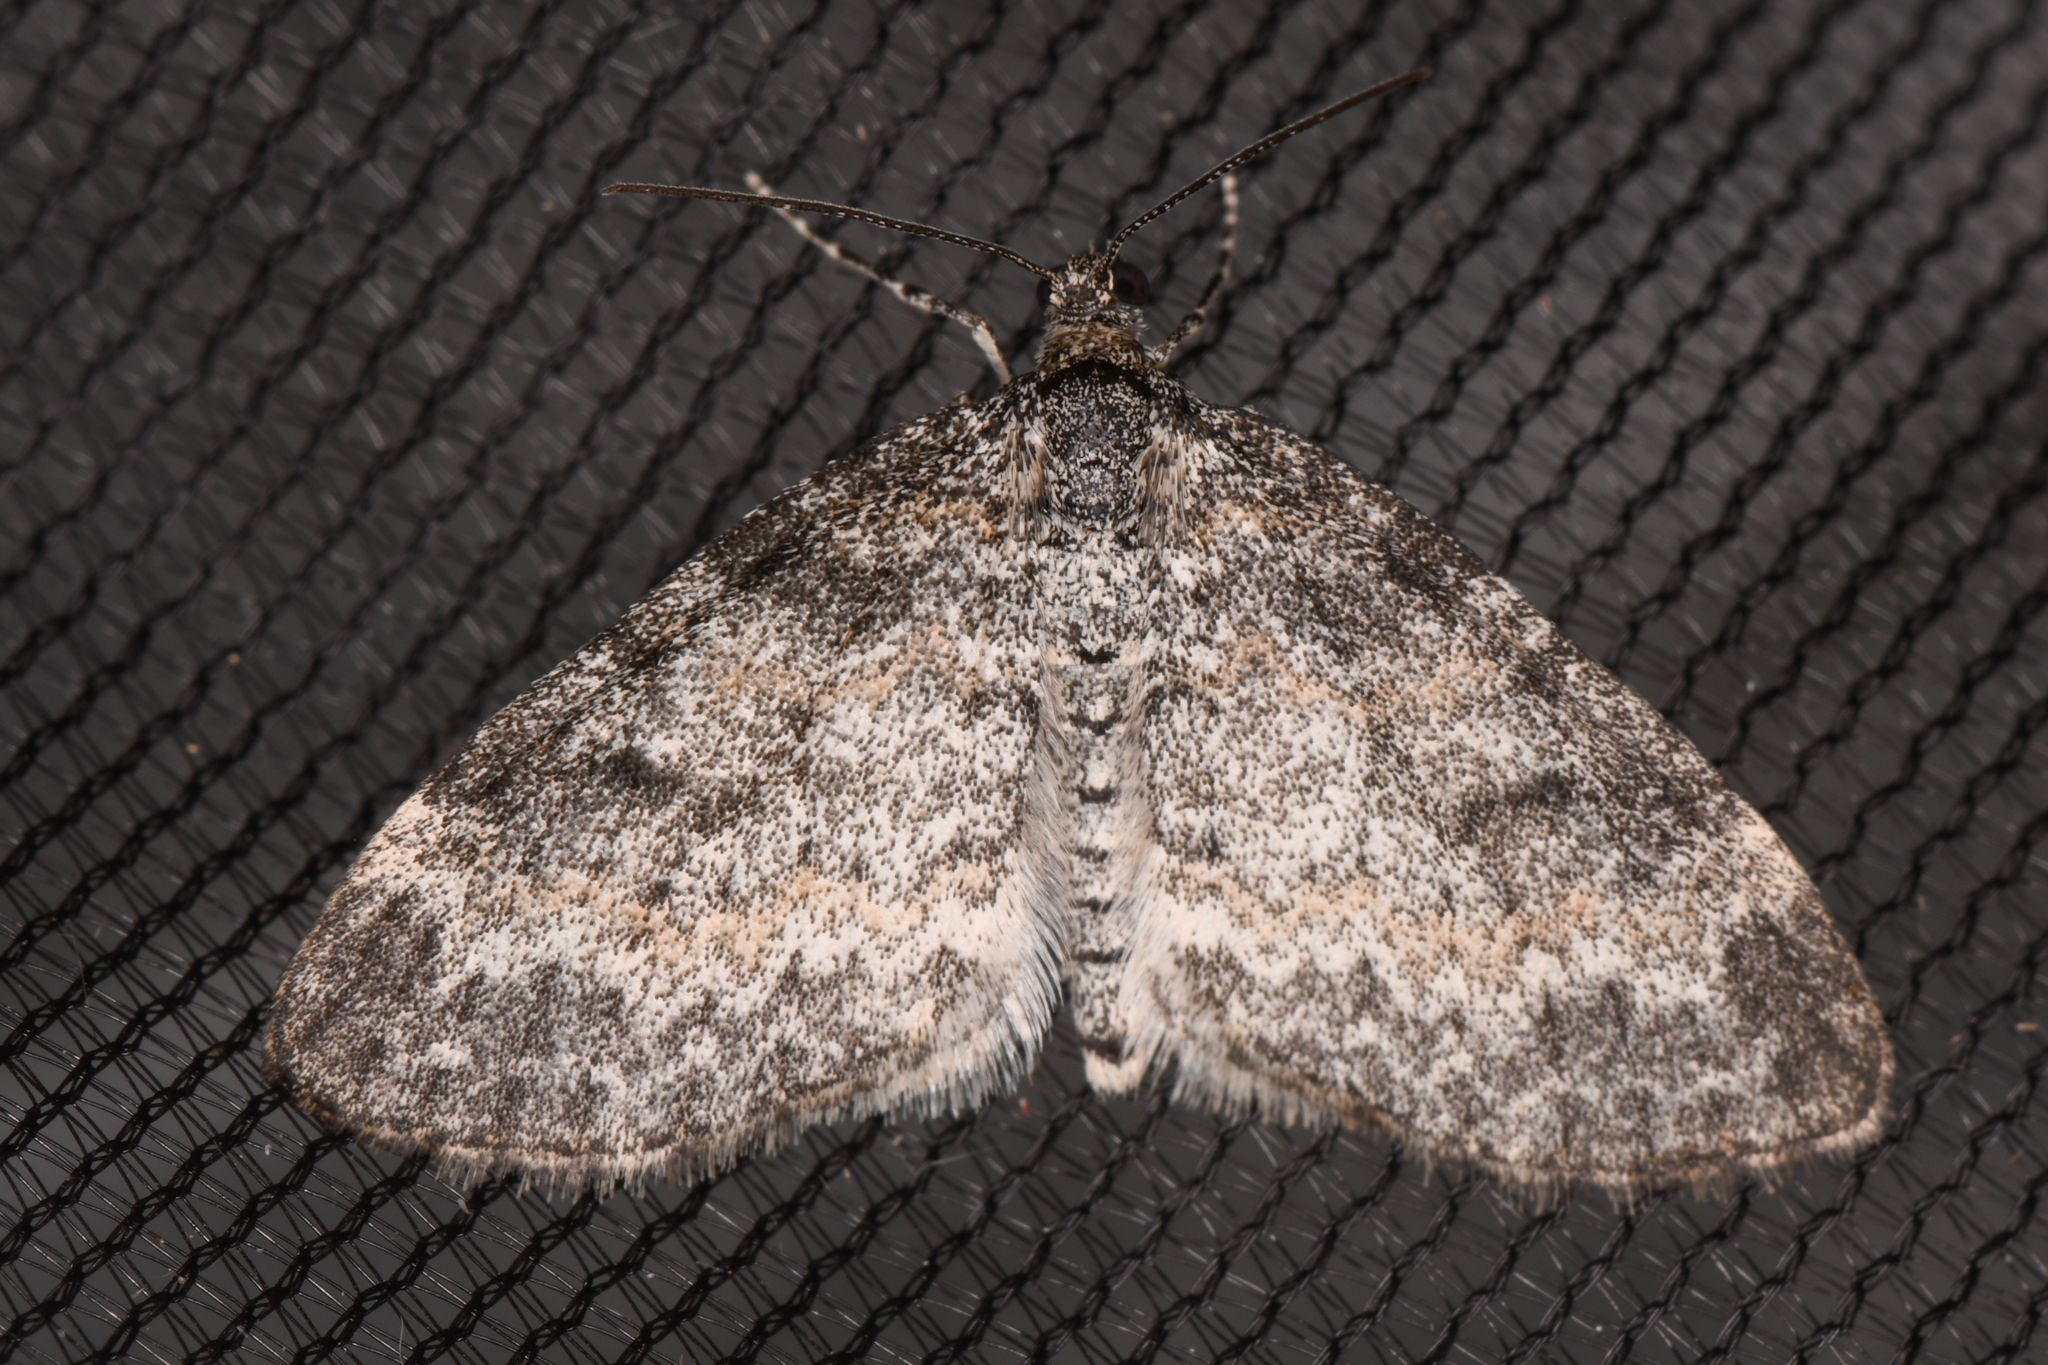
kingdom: Animalia
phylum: Arthropoda
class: Insecta
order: Lepidoptera
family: Geometridae
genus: Lobophora
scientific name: Lobophora nivigerata
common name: Powdered bigwing
